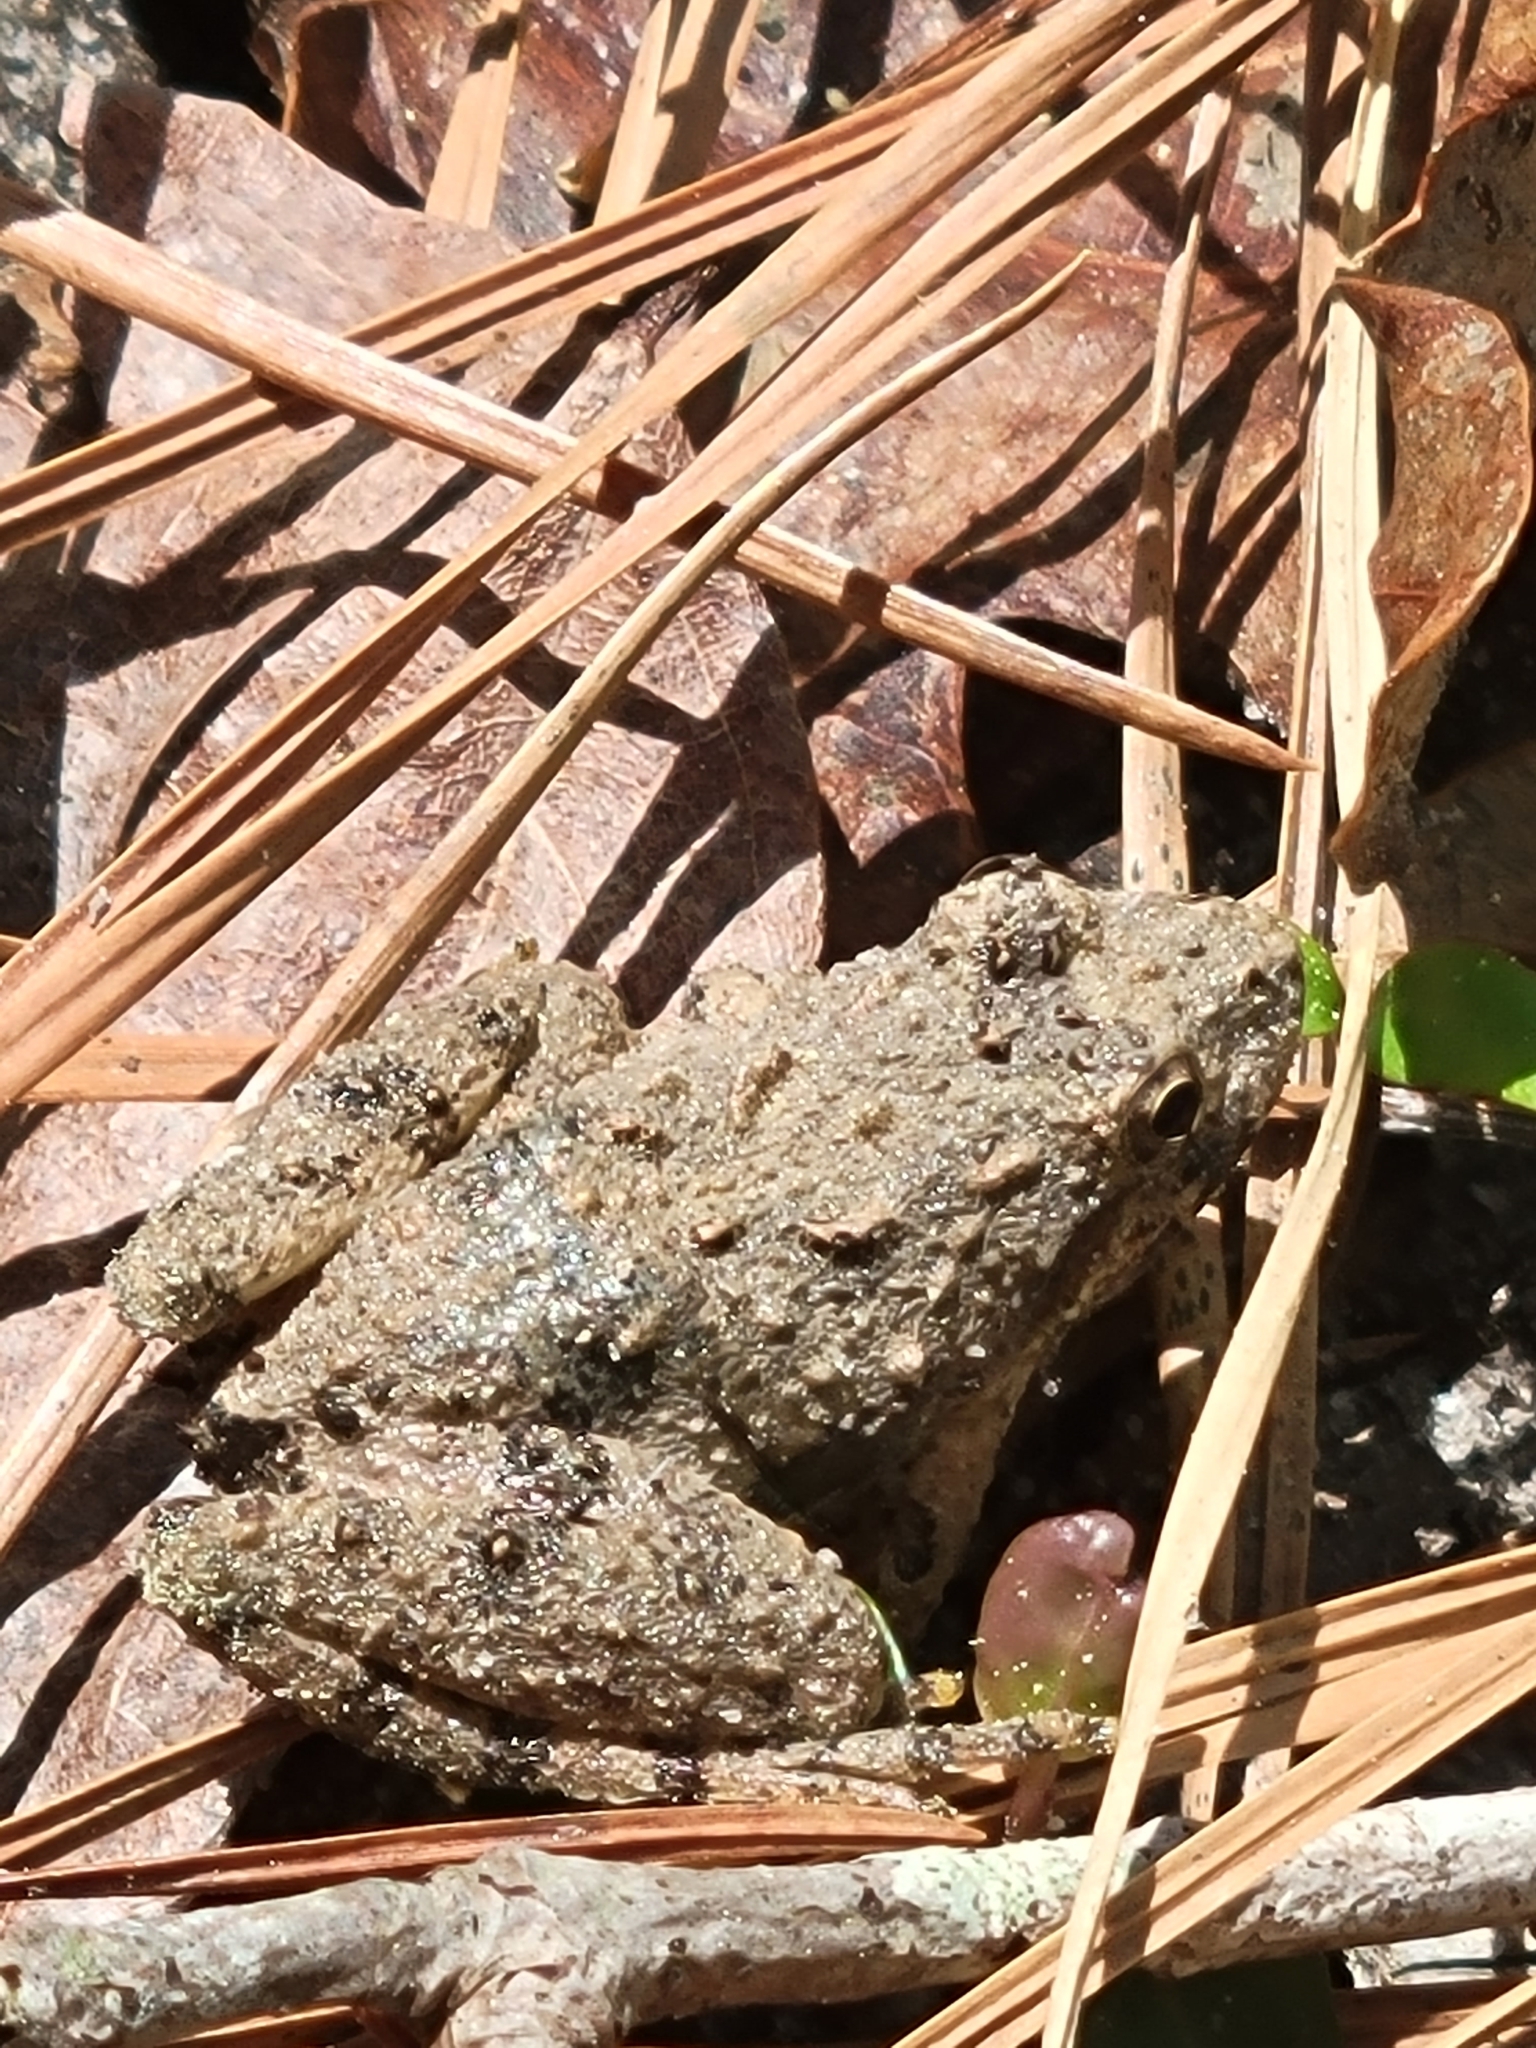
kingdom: Animalia
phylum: Chordata
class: Amphibia
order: Anura
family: Hylidae
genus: Acris
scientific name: Acris crepitans
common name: Northern cricket frog
